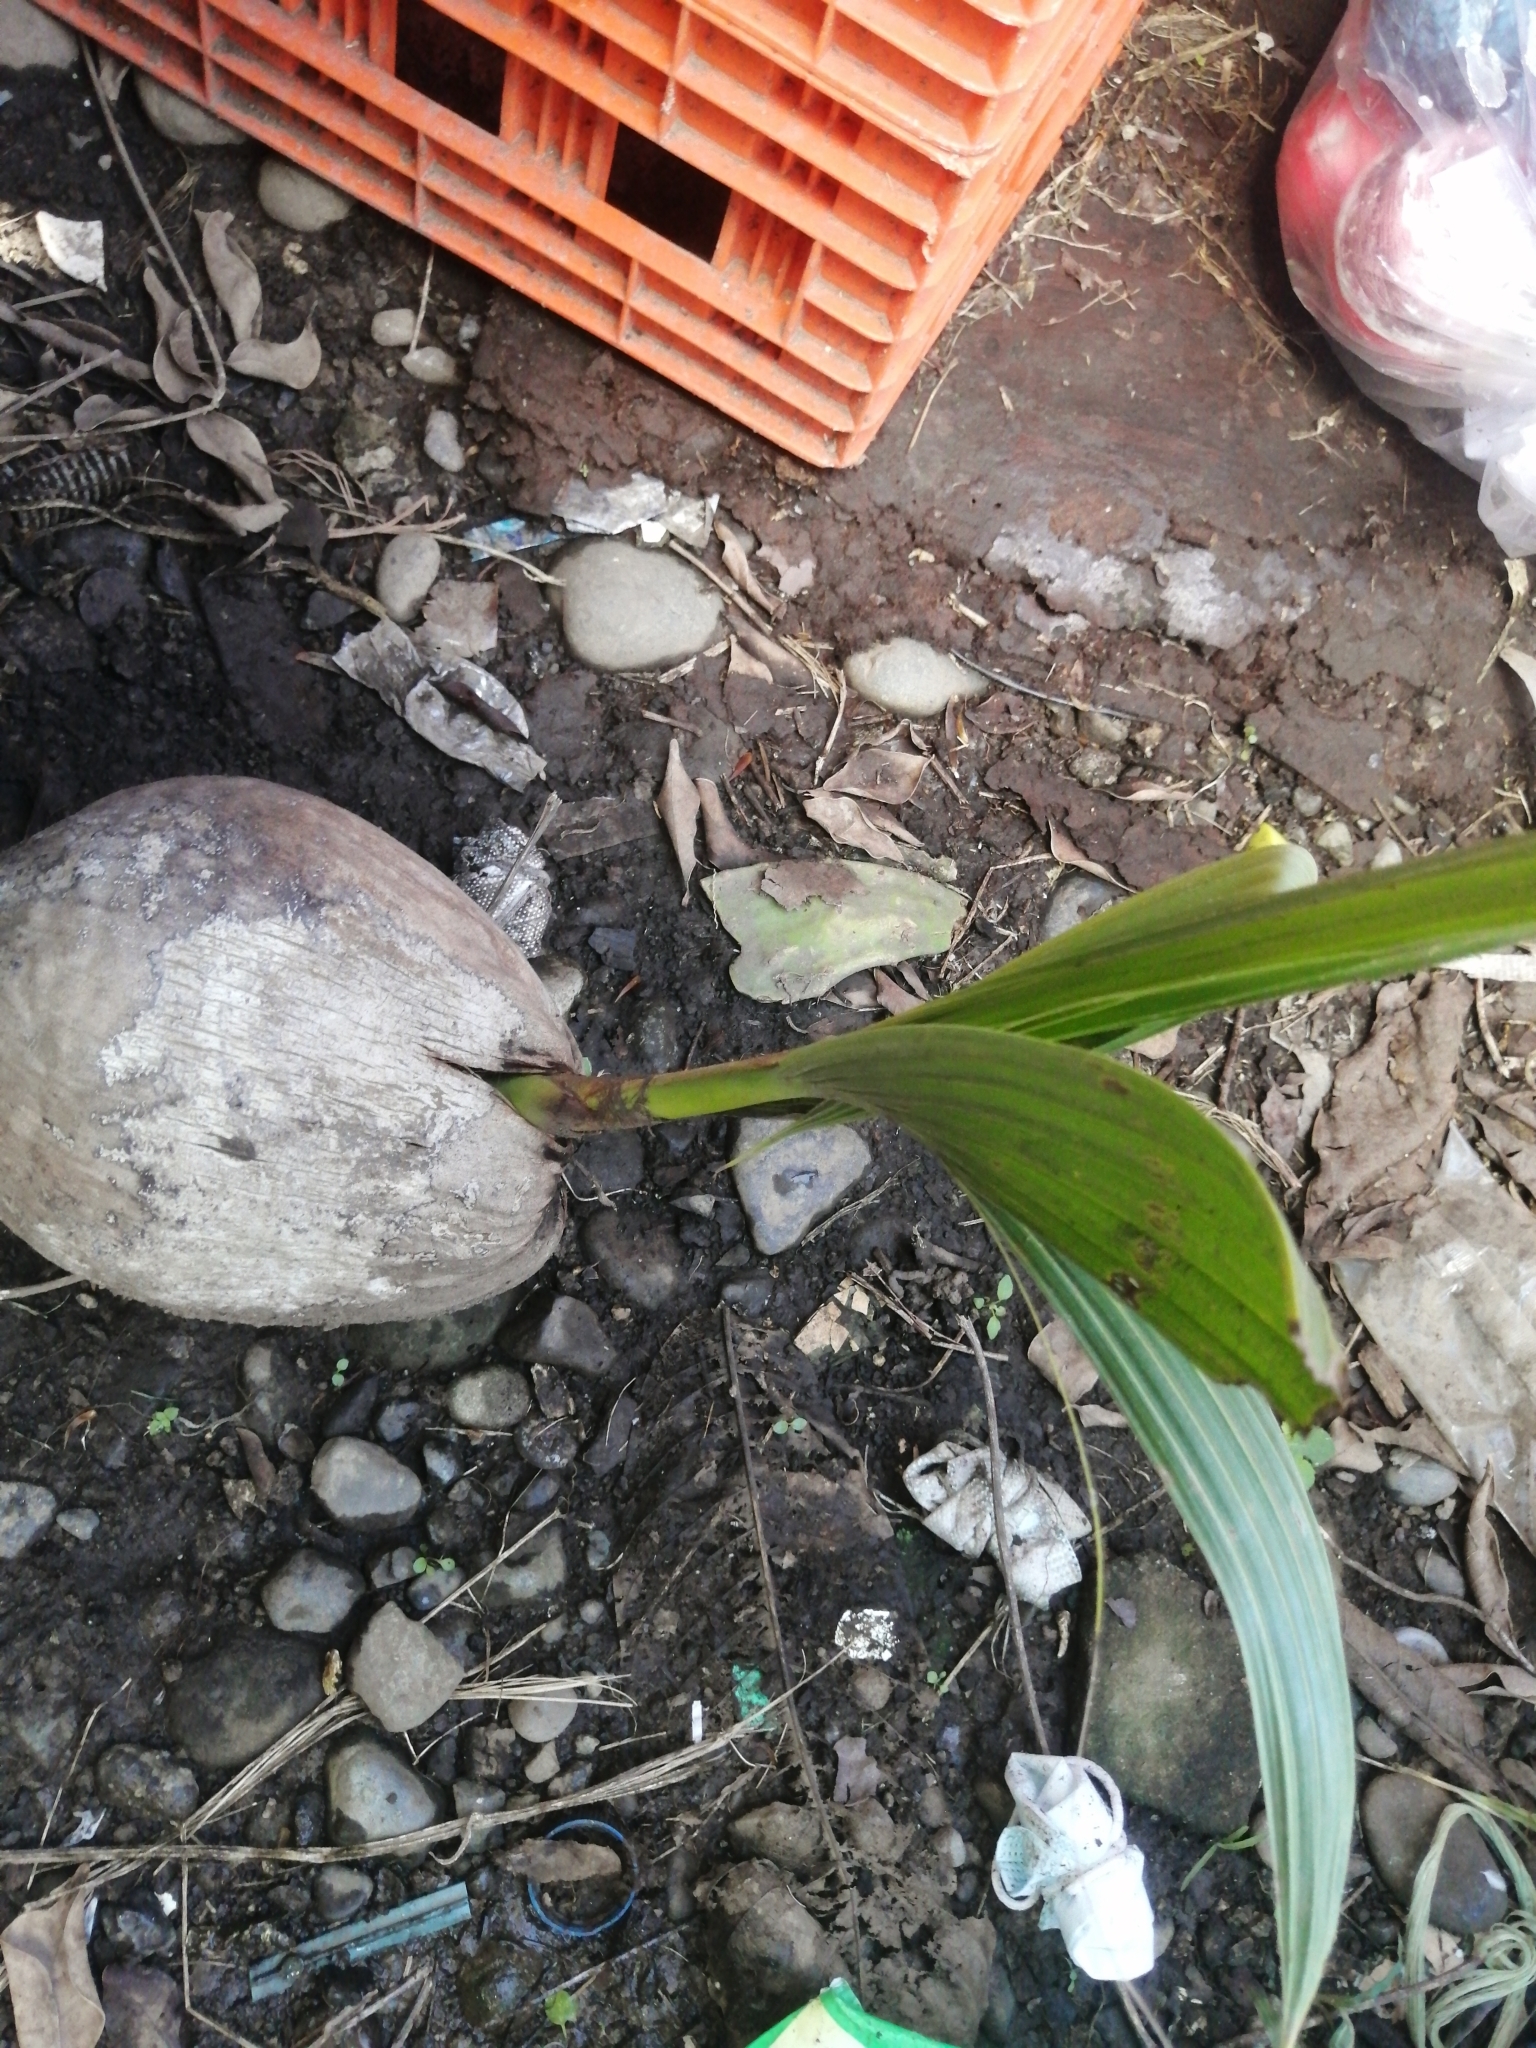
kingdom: Plantae
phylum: Tracheophyta
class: Liliopsida
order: Arecales
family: Arecaceae
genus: Cocos
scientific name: Cocos nucifera
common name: Coconut palm
